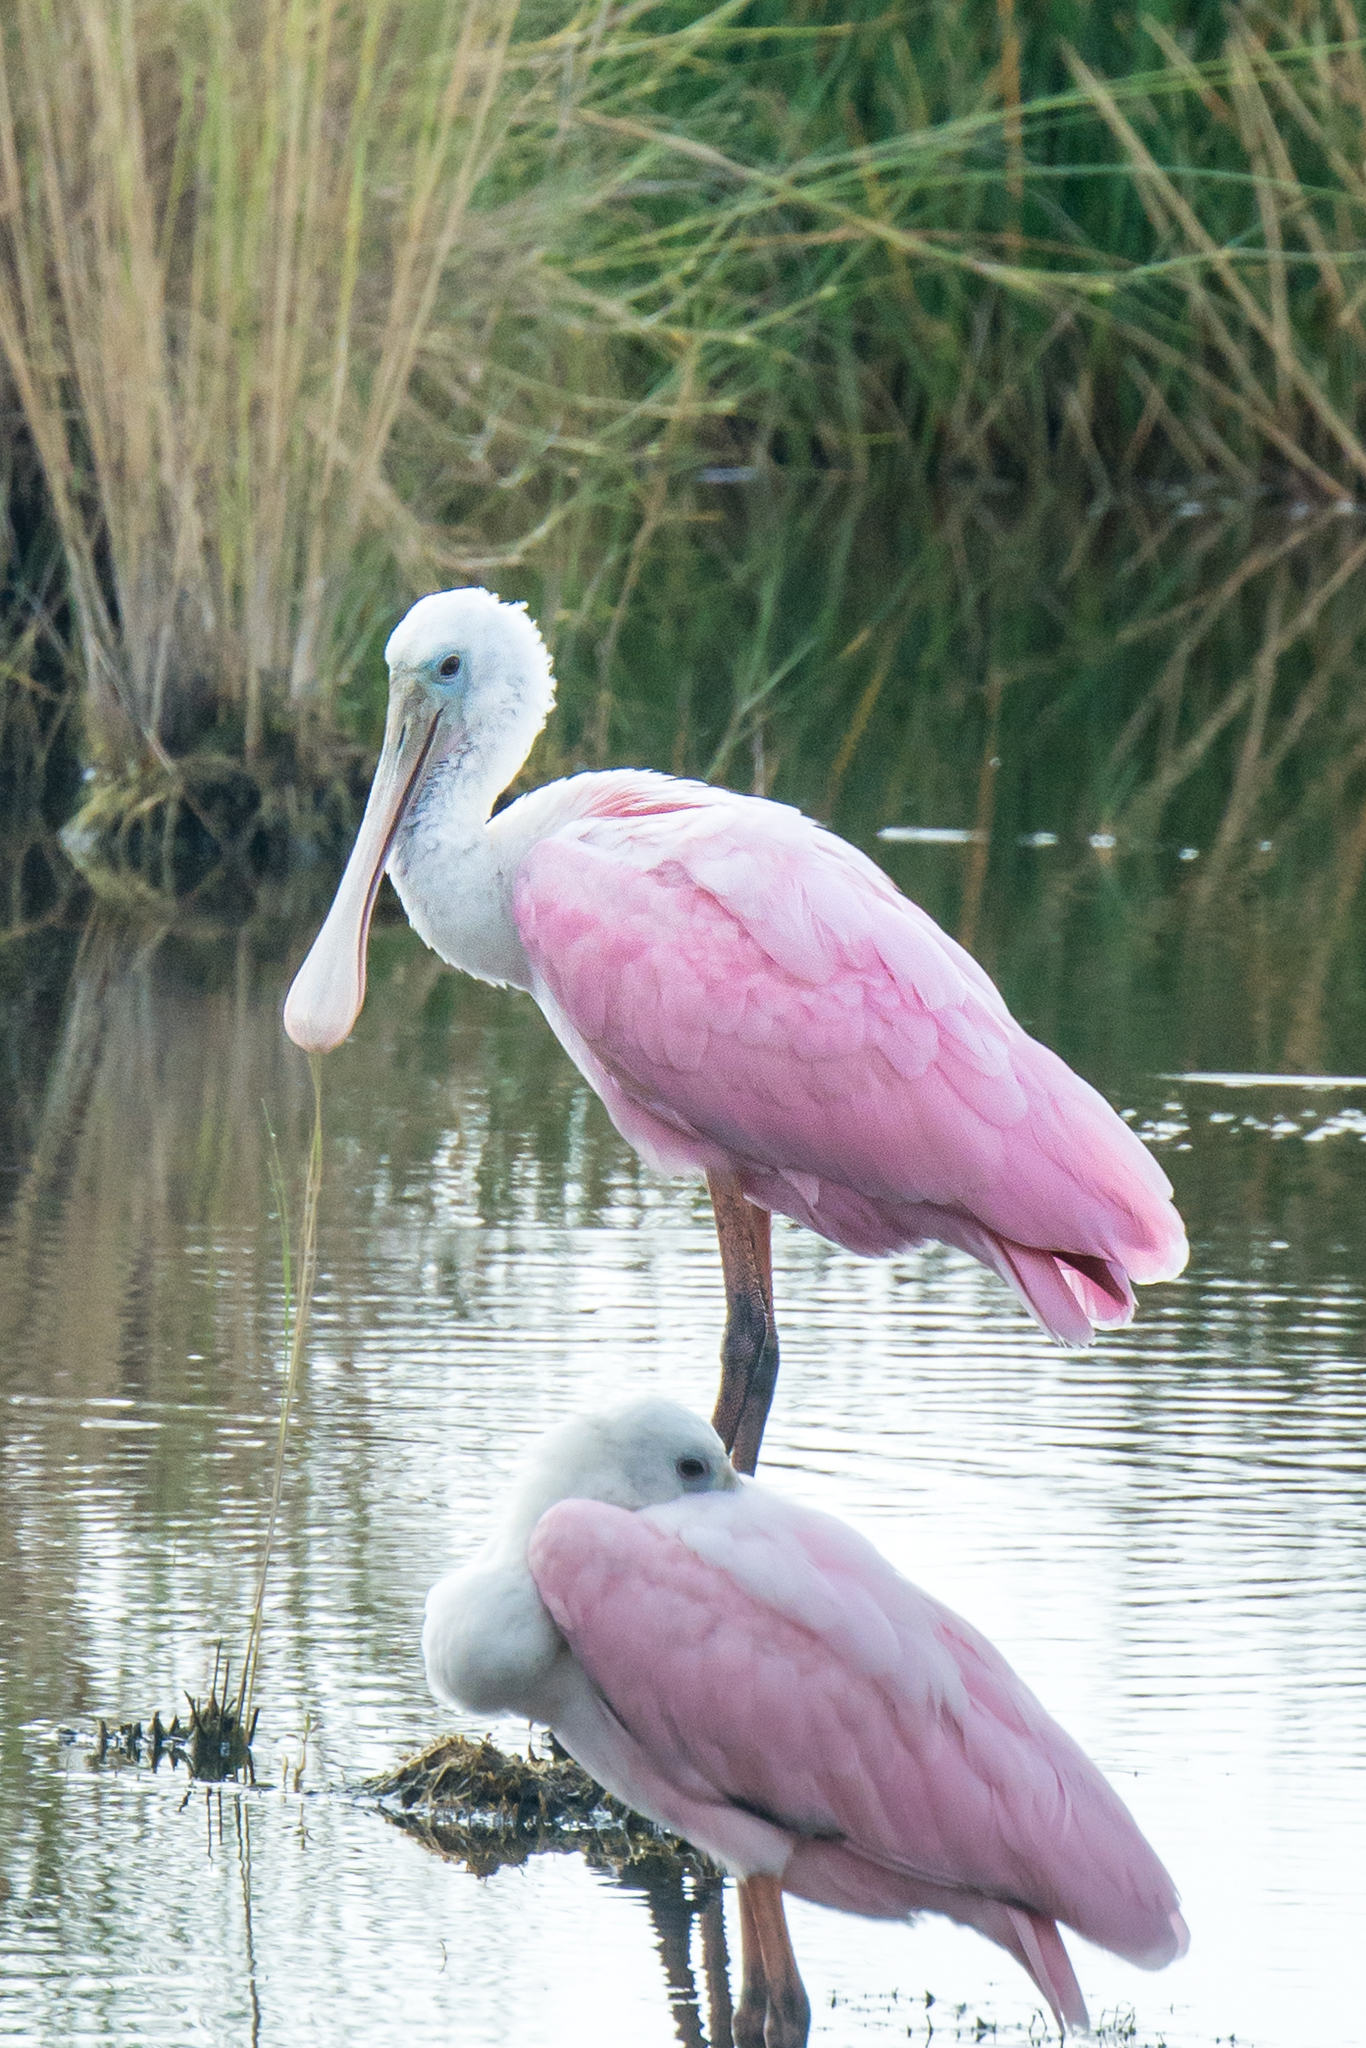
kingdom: Animalia
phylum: Chordata
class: Aves
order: Pelecaniformes
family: Threskiornithidae
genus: Platalea
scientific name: Platalea ajaja
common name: Roseate spoonbill
